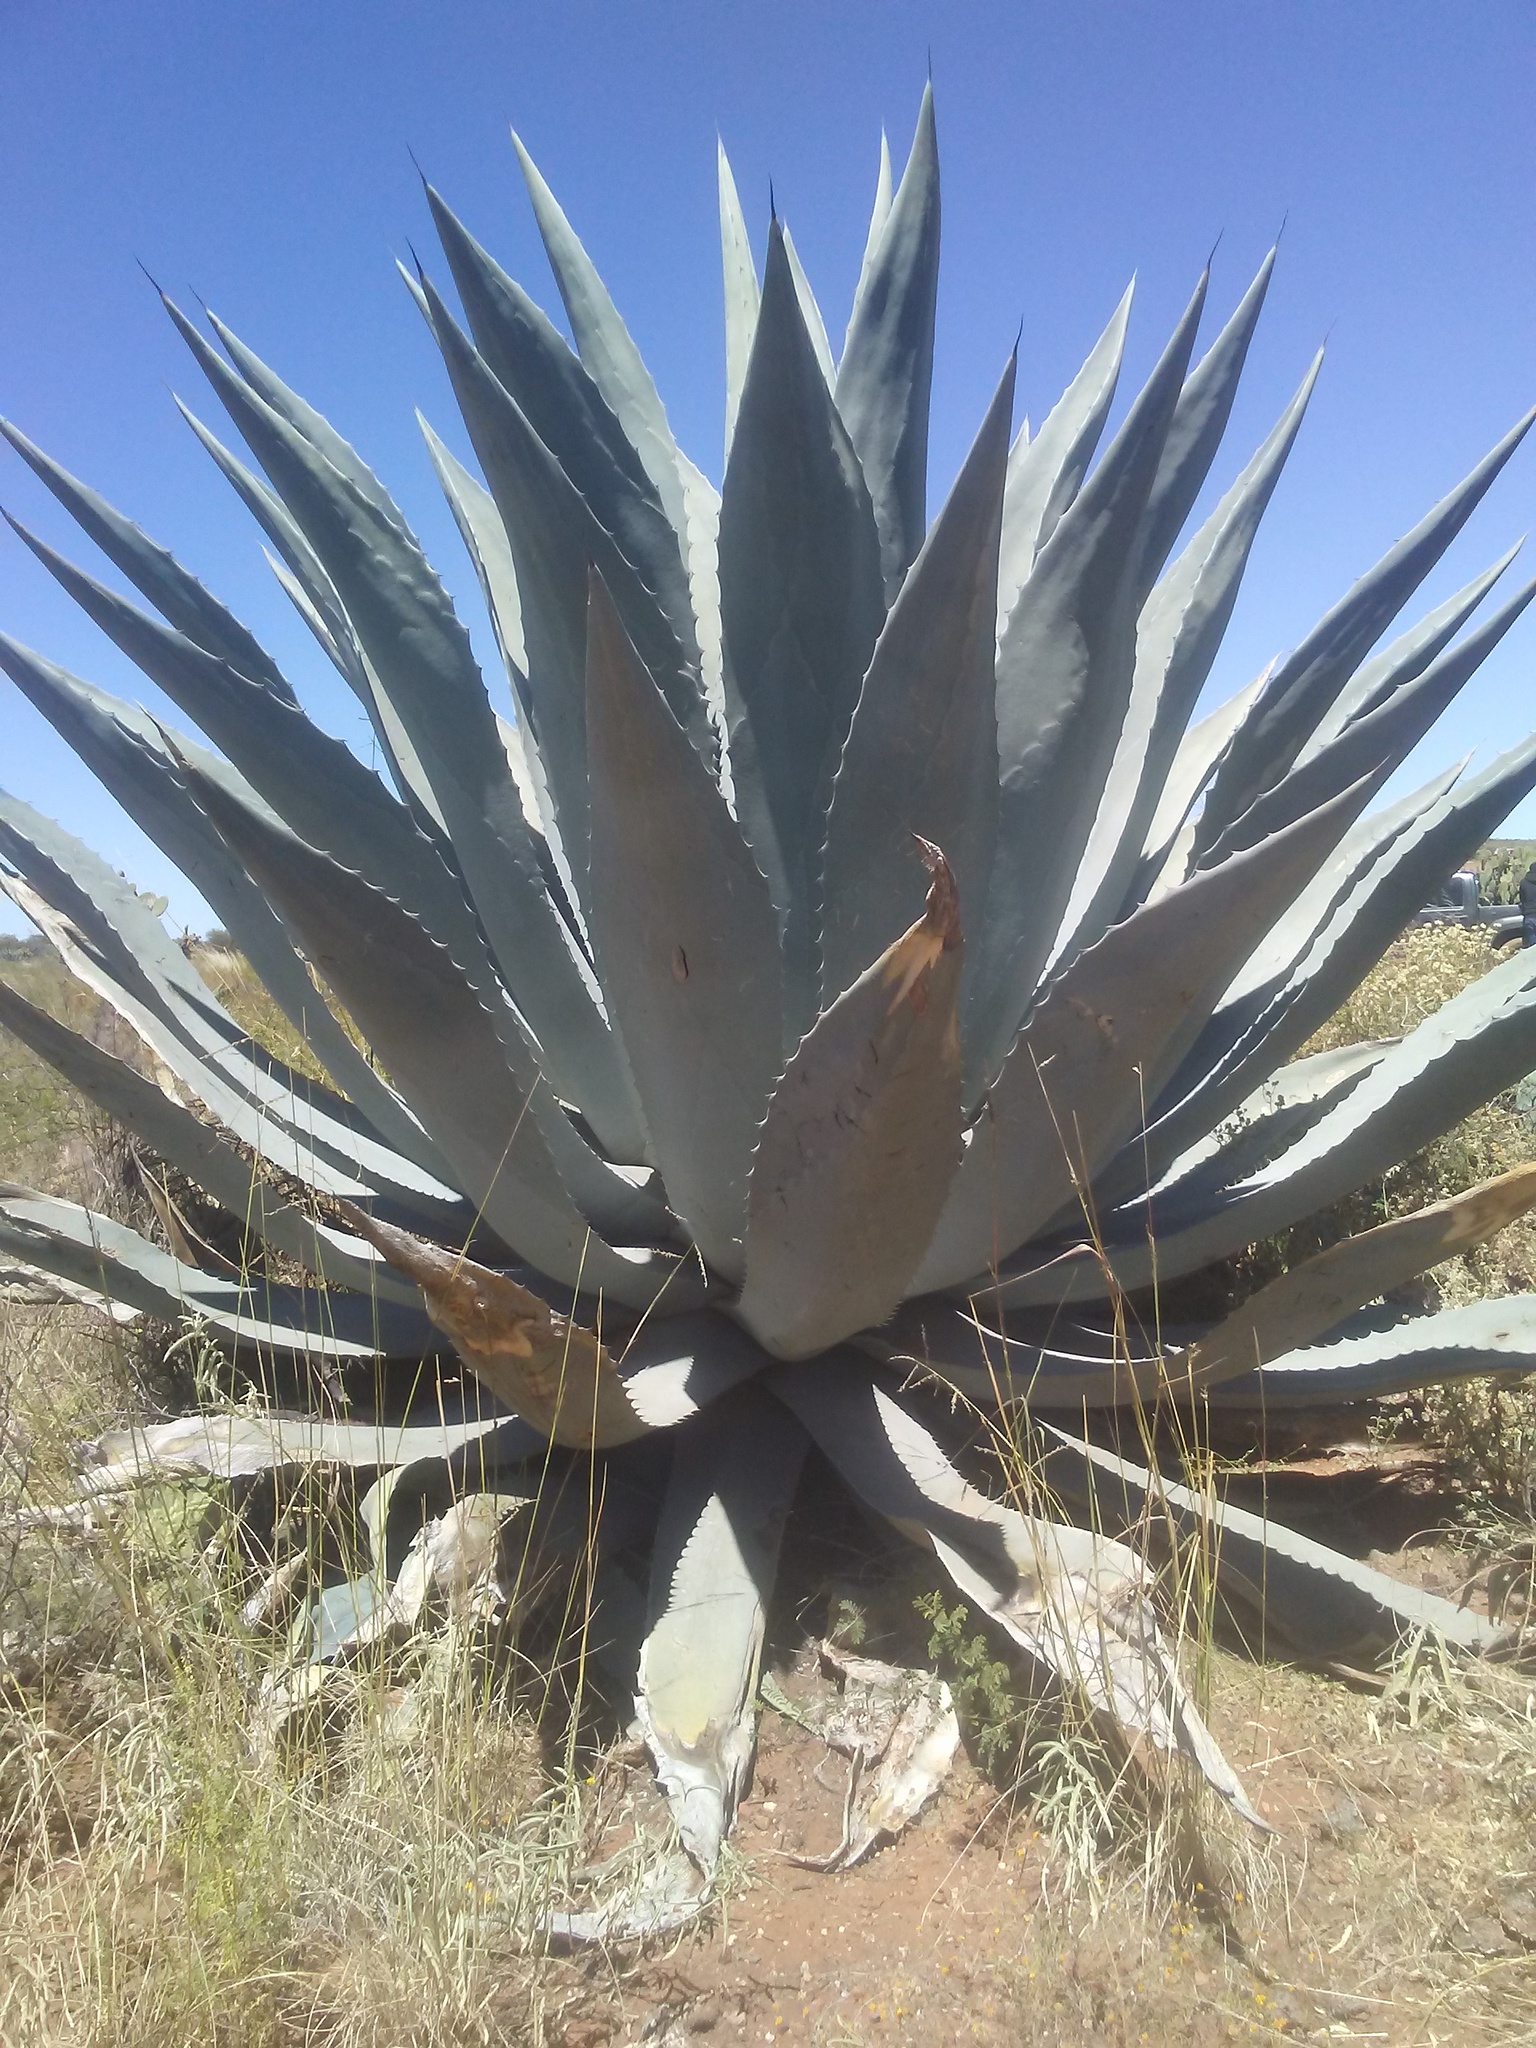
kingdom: Plantae
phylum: Tracheophyta
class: Liliopsida
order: Asparagales
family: Asparagaceae
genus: Agave
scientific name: Agave americana
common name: Centuryplant
